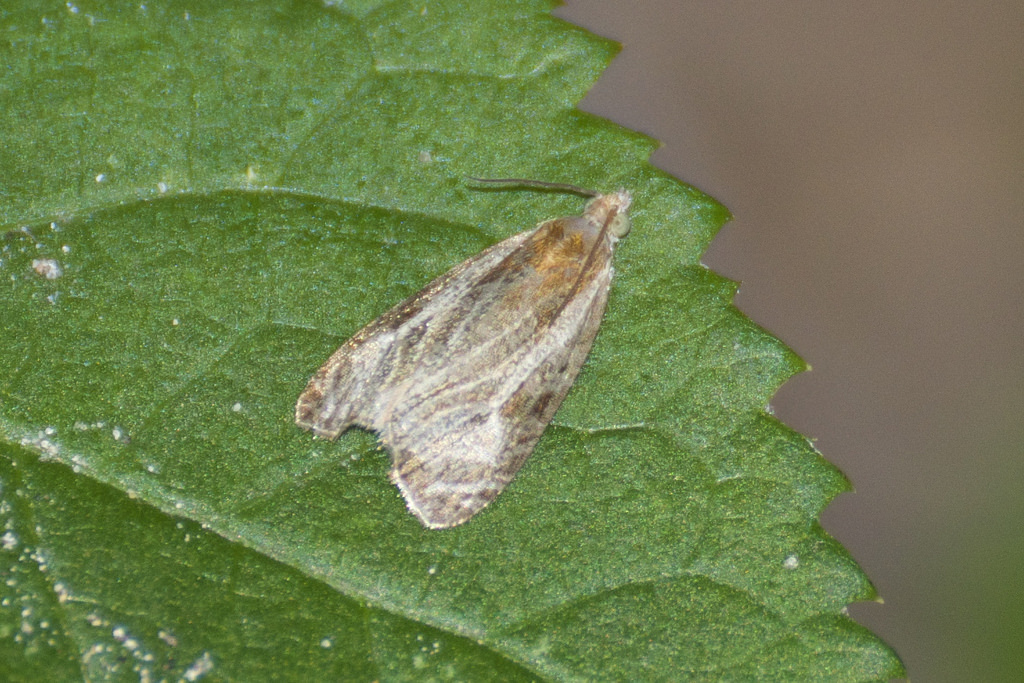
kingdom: Animalia
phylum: Arthropoda
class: Insecta
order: Lepidoptera
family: Tortricidae
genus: Olethreutes
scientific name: Olethreutes quadrifidum
